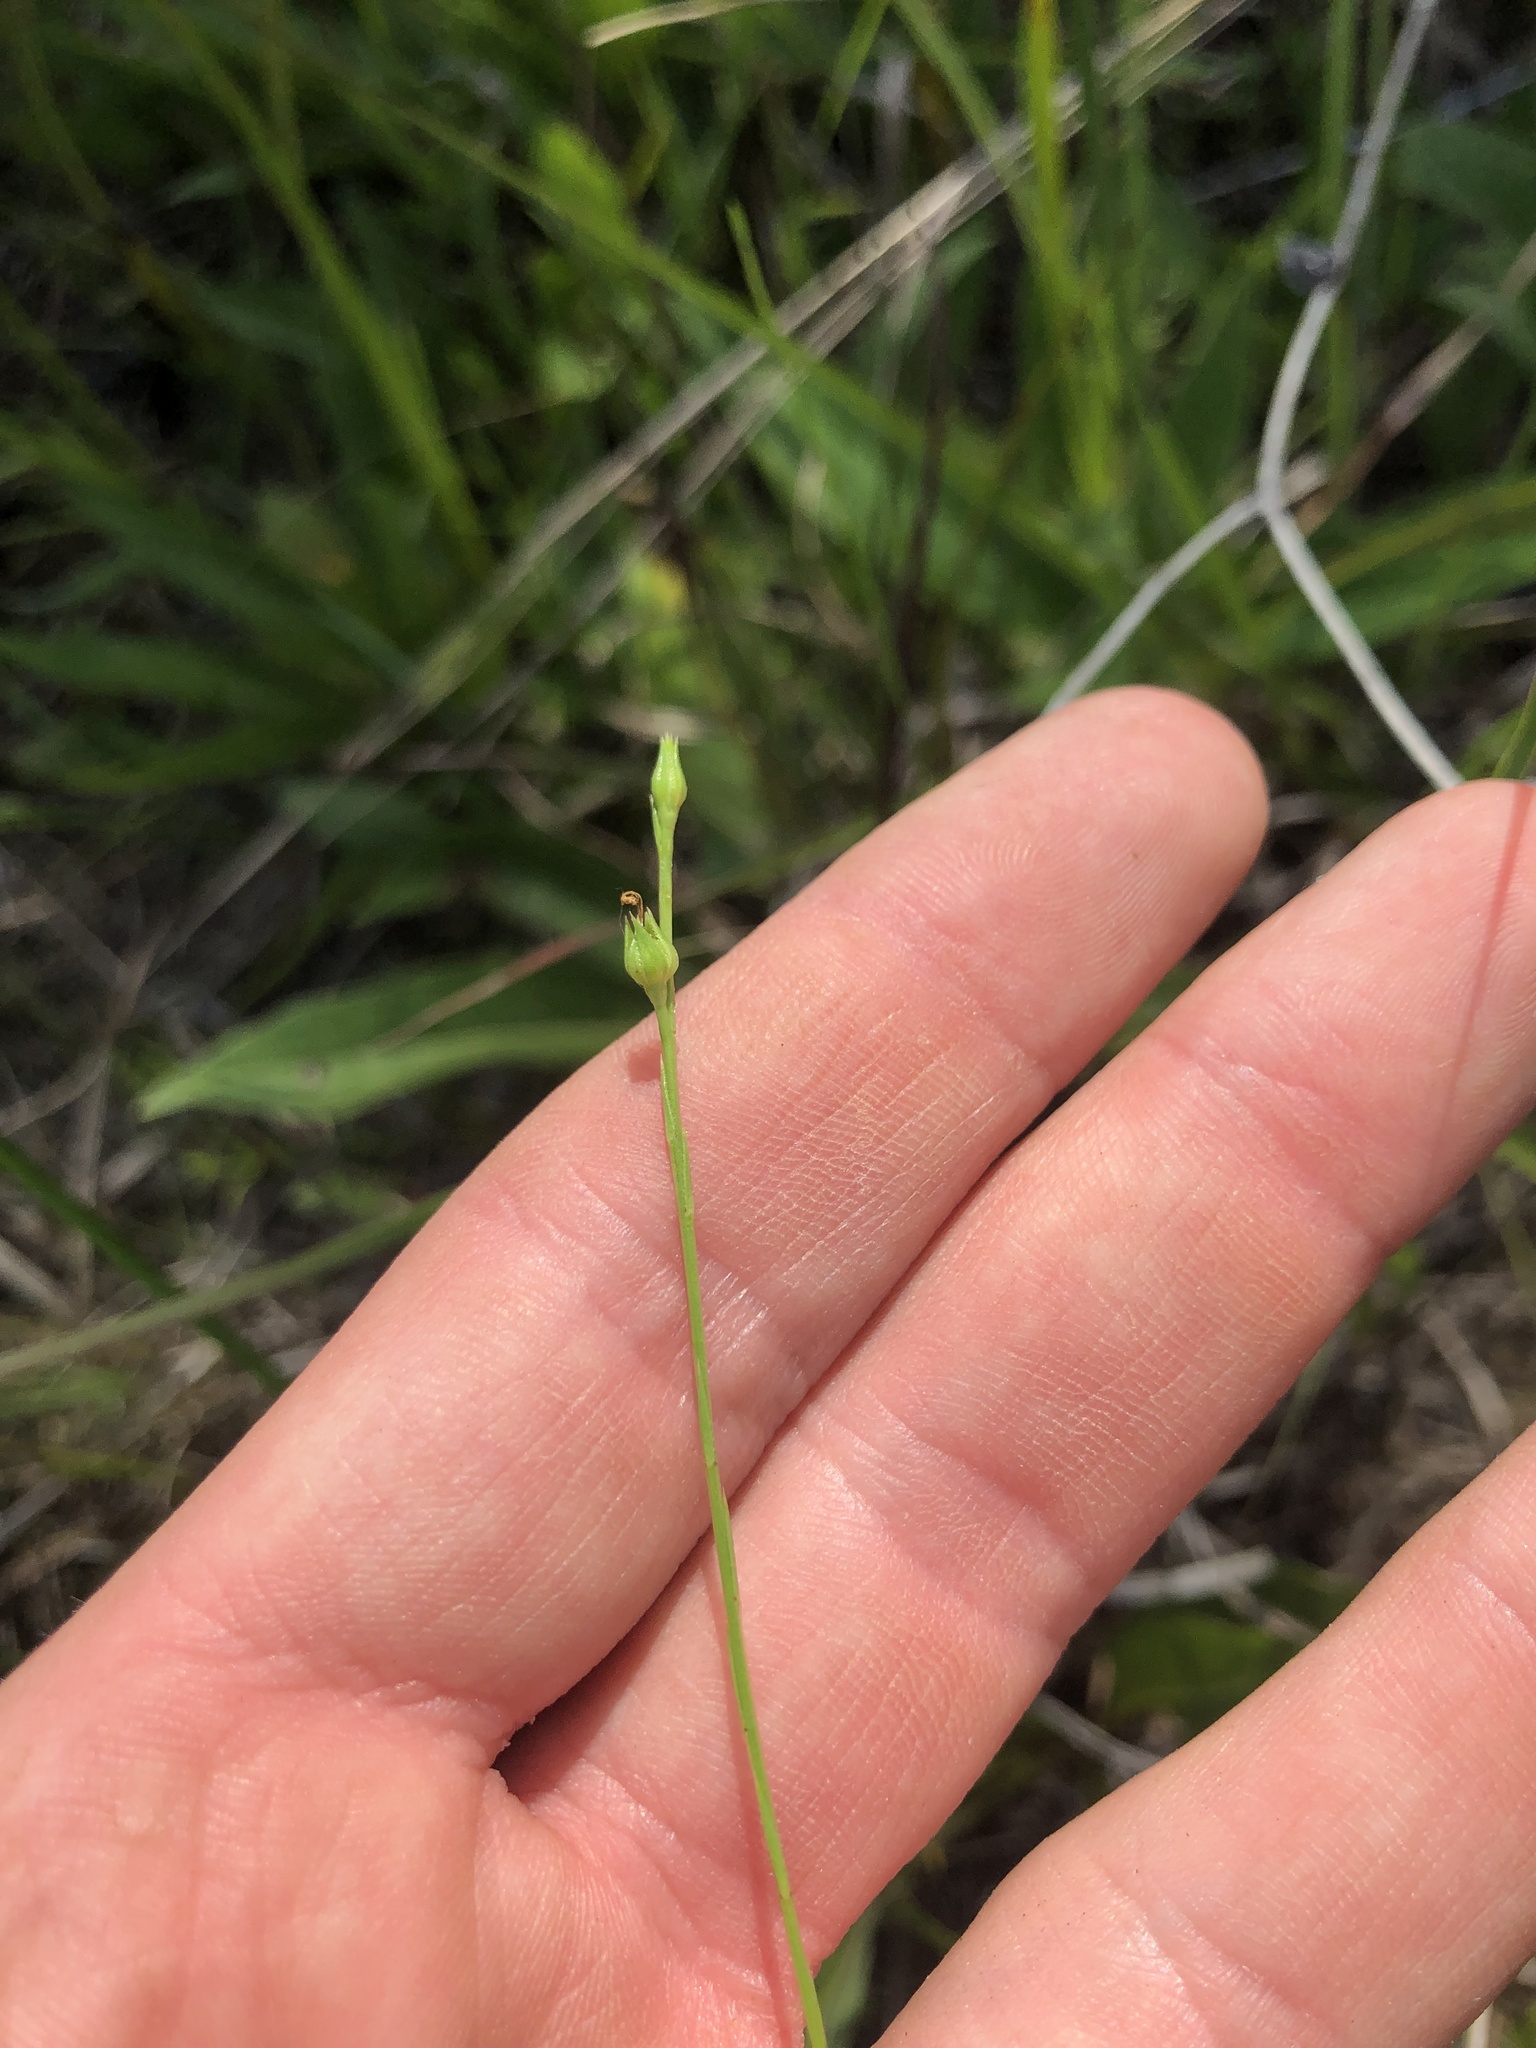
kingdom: Plantae
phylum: Tracheophyta
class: Magnoliopsida
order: Malpighiales
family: Linaceae
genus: Linum
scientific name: Linum sulcatum
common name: Grooved flax
